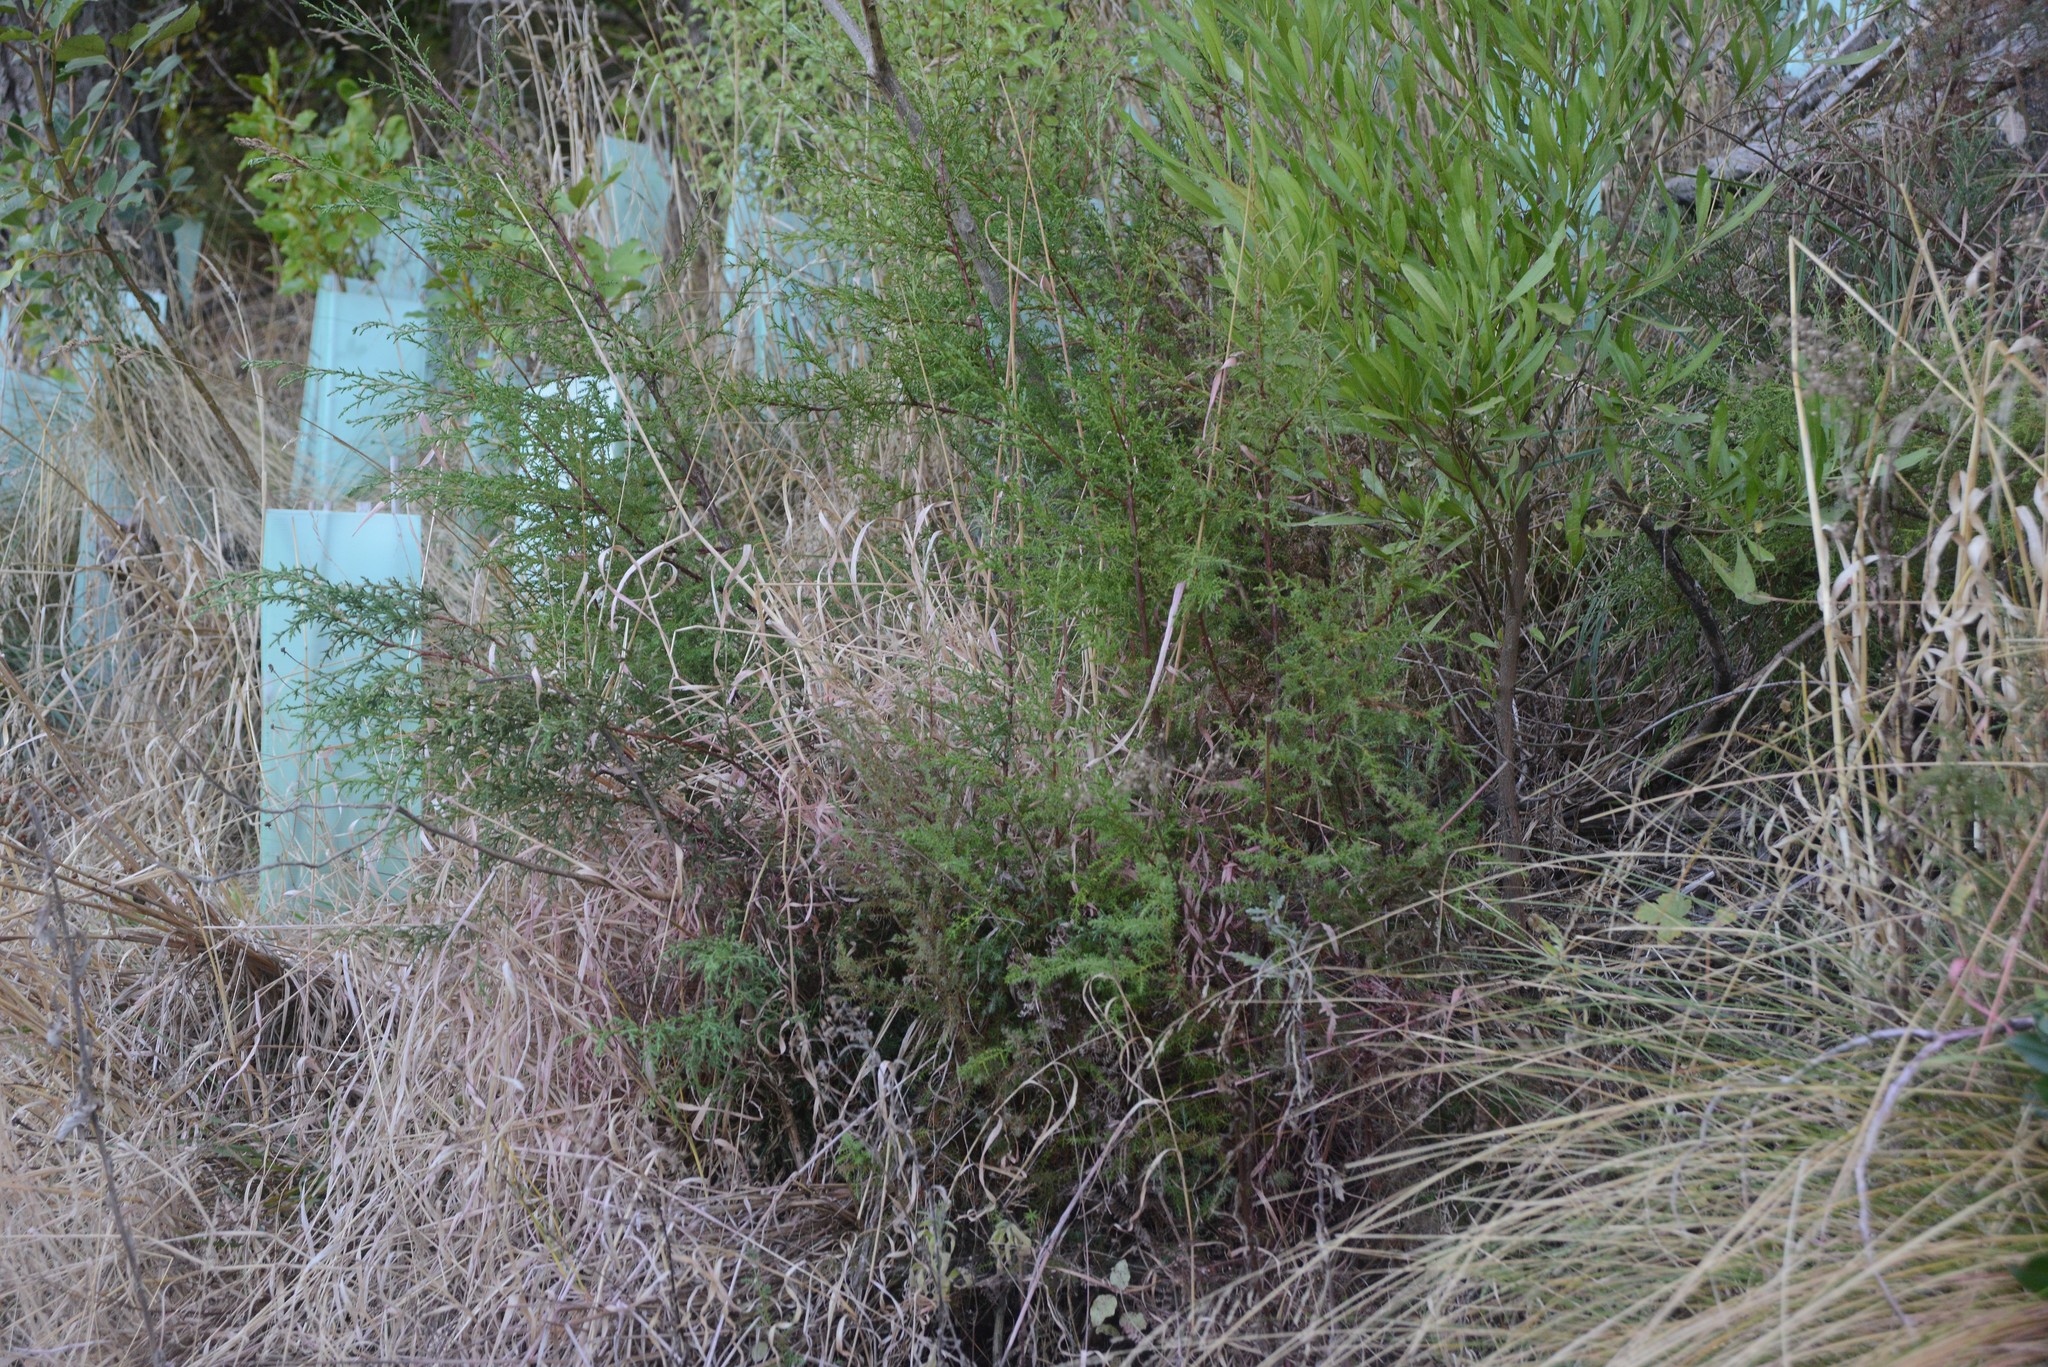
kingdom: Plantae
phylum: Tracheophyta
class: Pinopsida
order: Pinales
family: Cupressaceae
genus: Cupressus
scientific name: Cupressus macrocarpa
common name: Monterey cypress
